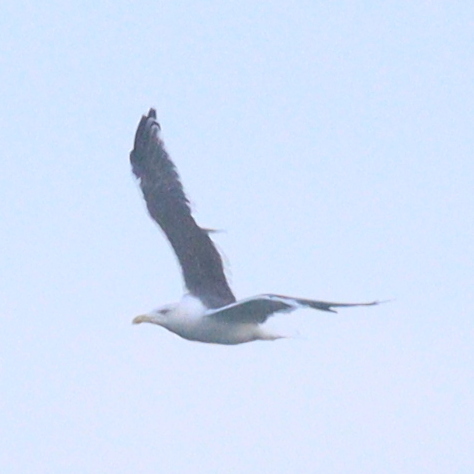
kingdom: Animalia
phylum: Chordata
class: Aves
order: Charadriiformes
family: Laridae
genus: Larus
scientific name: Larus marinus
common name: Great black-backed gull
